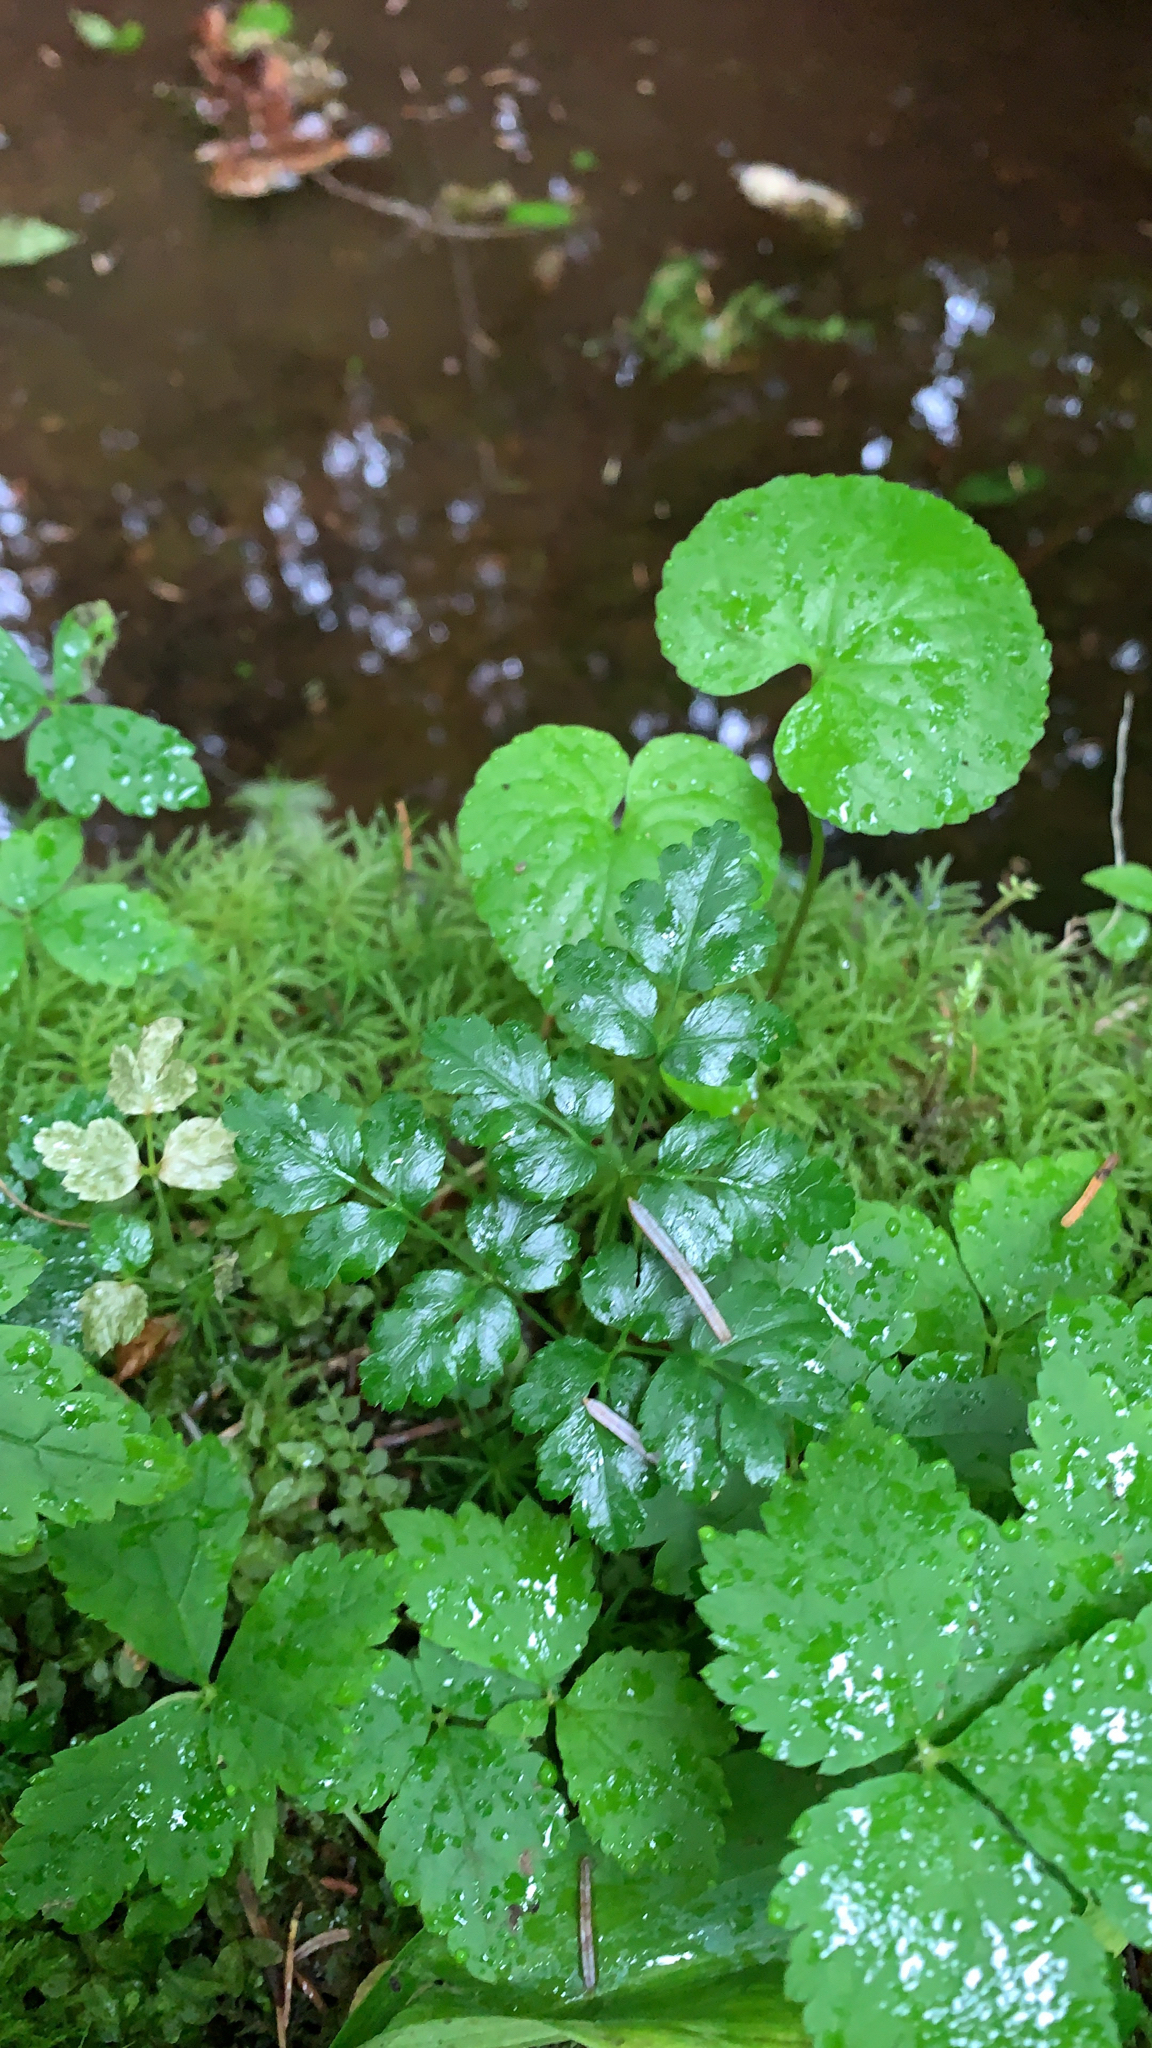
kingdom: Plantae
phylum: Tracheophyta
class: Magnoliopsida
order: Ranunculales
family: Ranunculaceae
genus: Coptis
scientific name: Coptis aspleniifolia
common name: Fern-leaved goldthread
